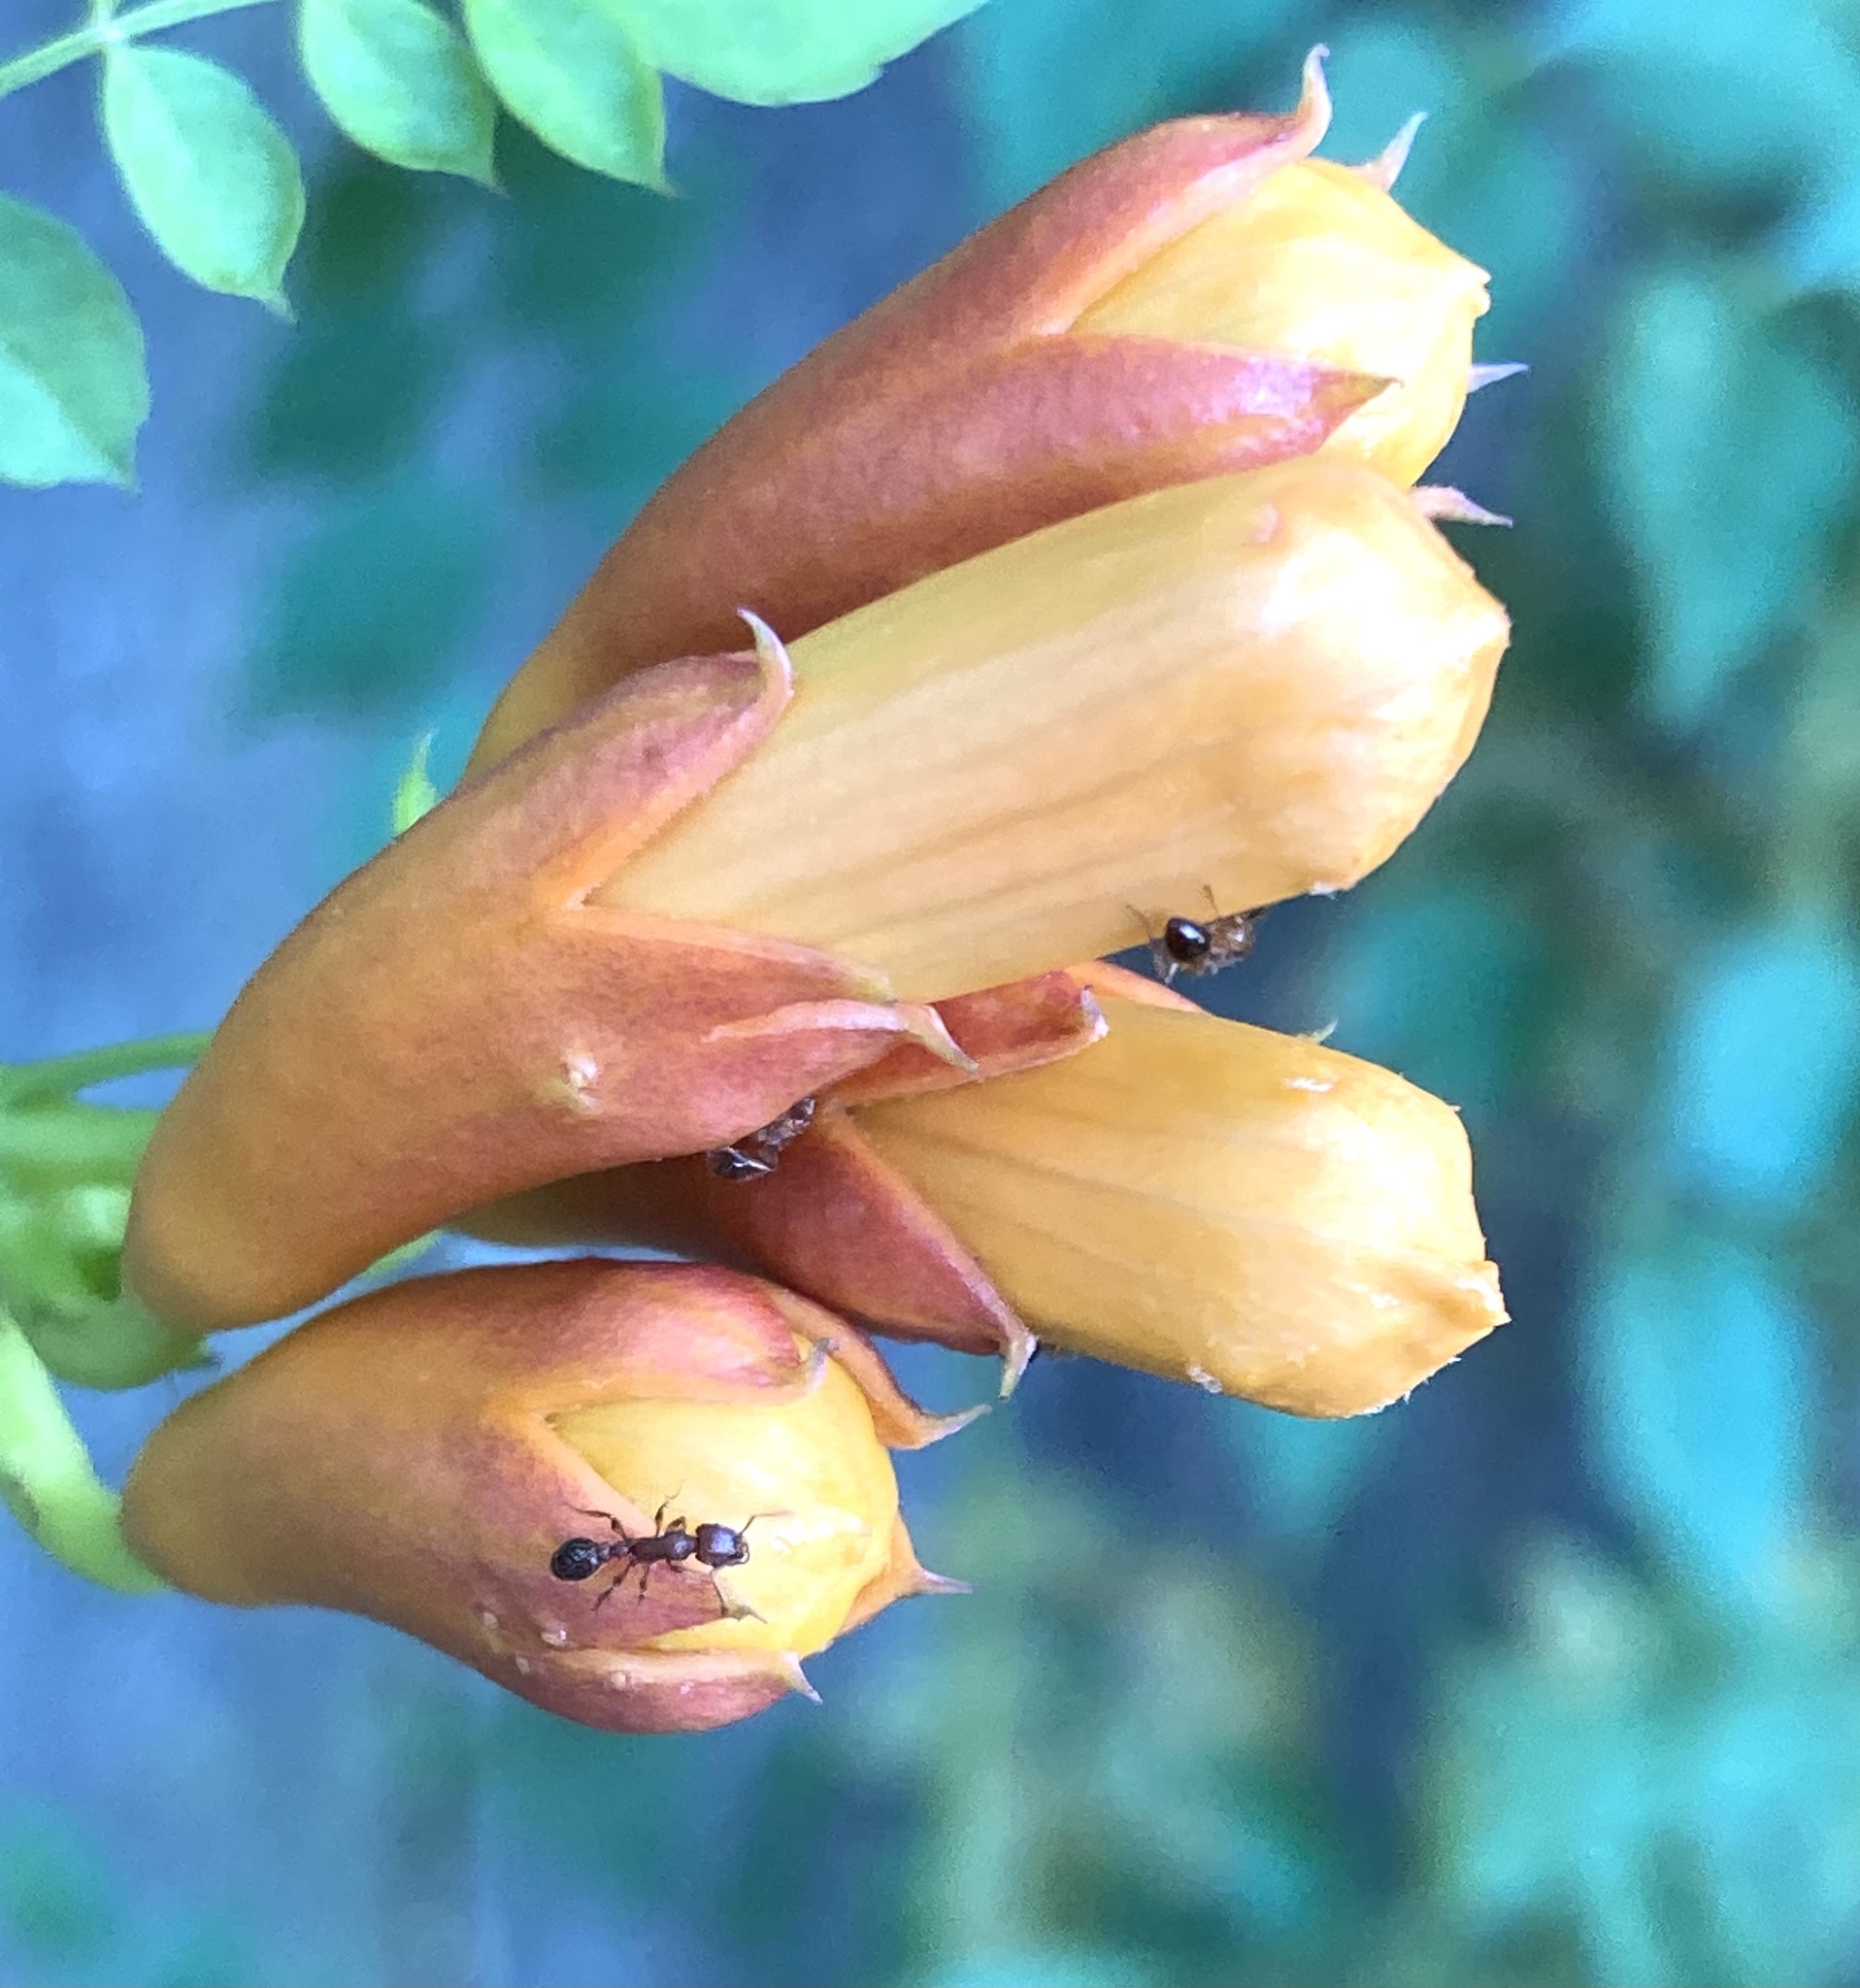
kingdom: Animalia
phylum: Arthropoda
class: Insecta
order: Hymenoptera
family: Formicidae
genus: Tetramorium
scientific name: Tetramorium bicarinatum
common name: Guinea ant
